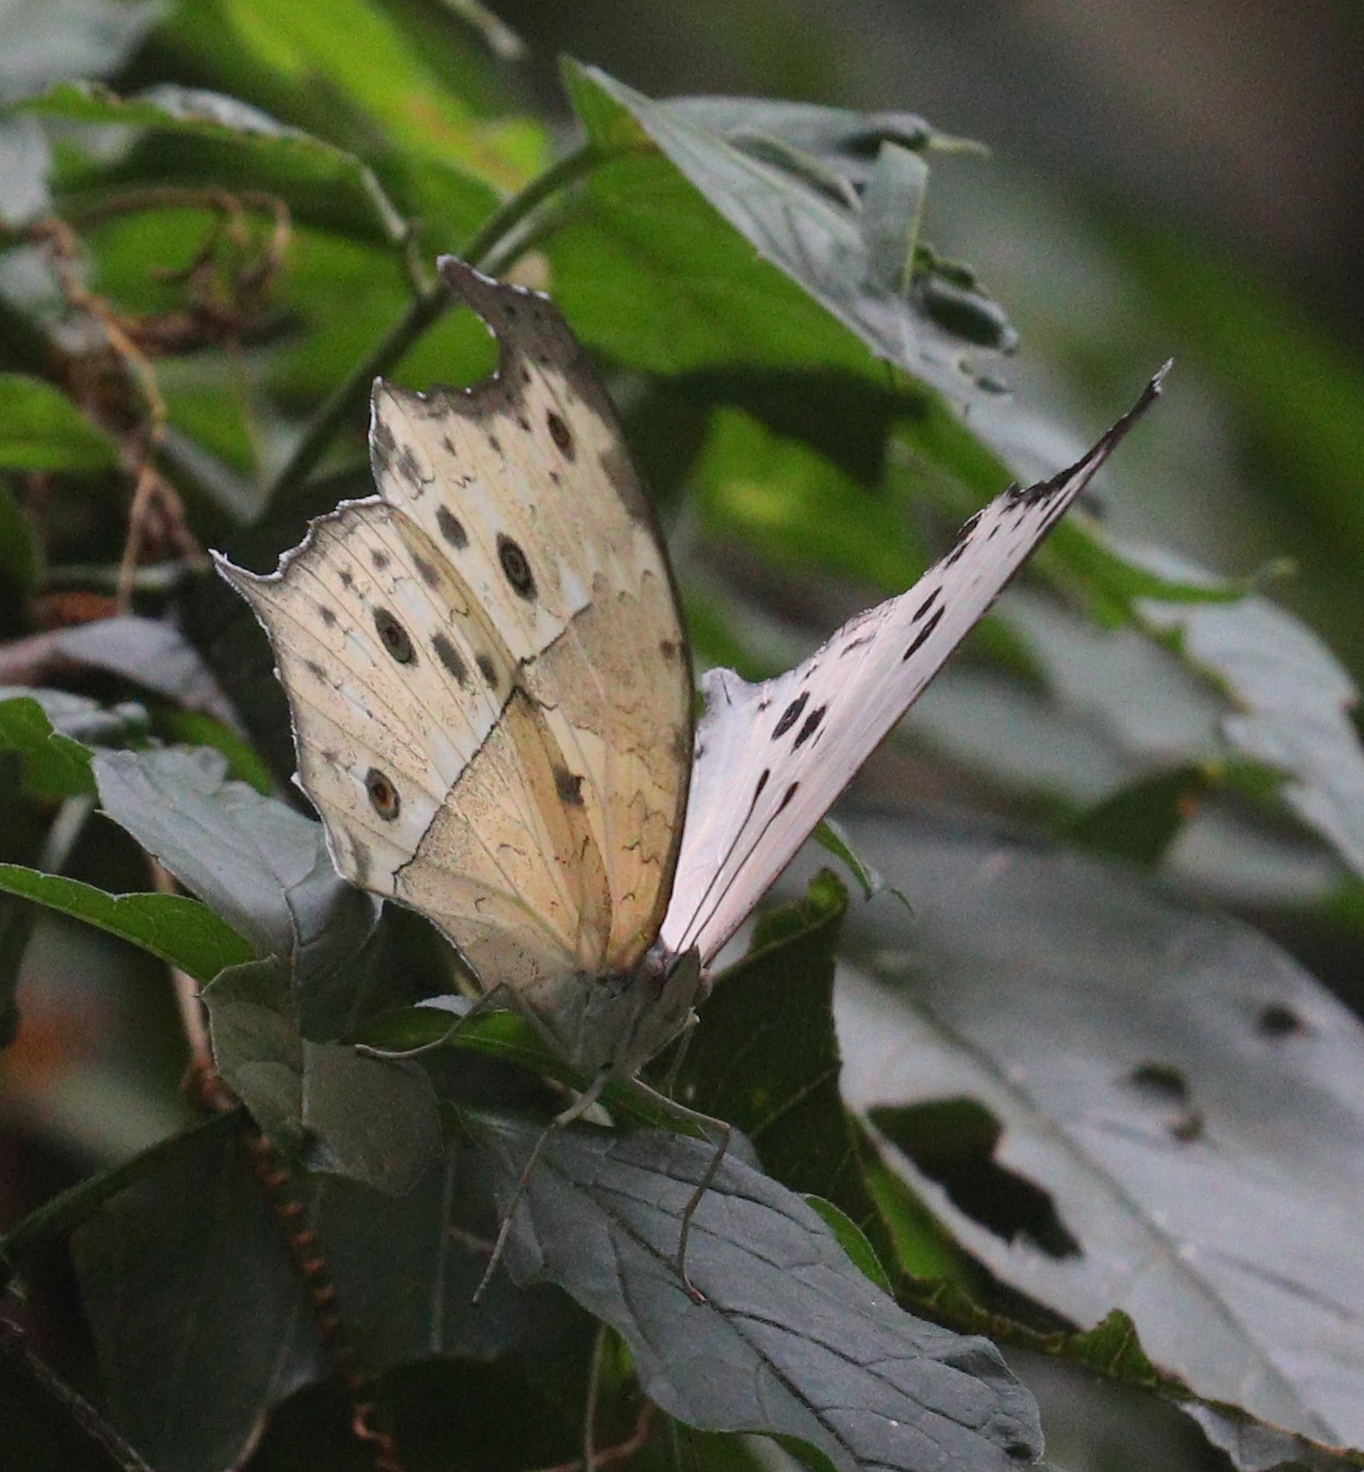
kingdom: Animalia
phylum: Arthropoda
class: Insecta
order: Lepidoptera
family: Nymphalidae
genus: Salamis
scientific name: Salamis Protogoniomorpha parhassus
